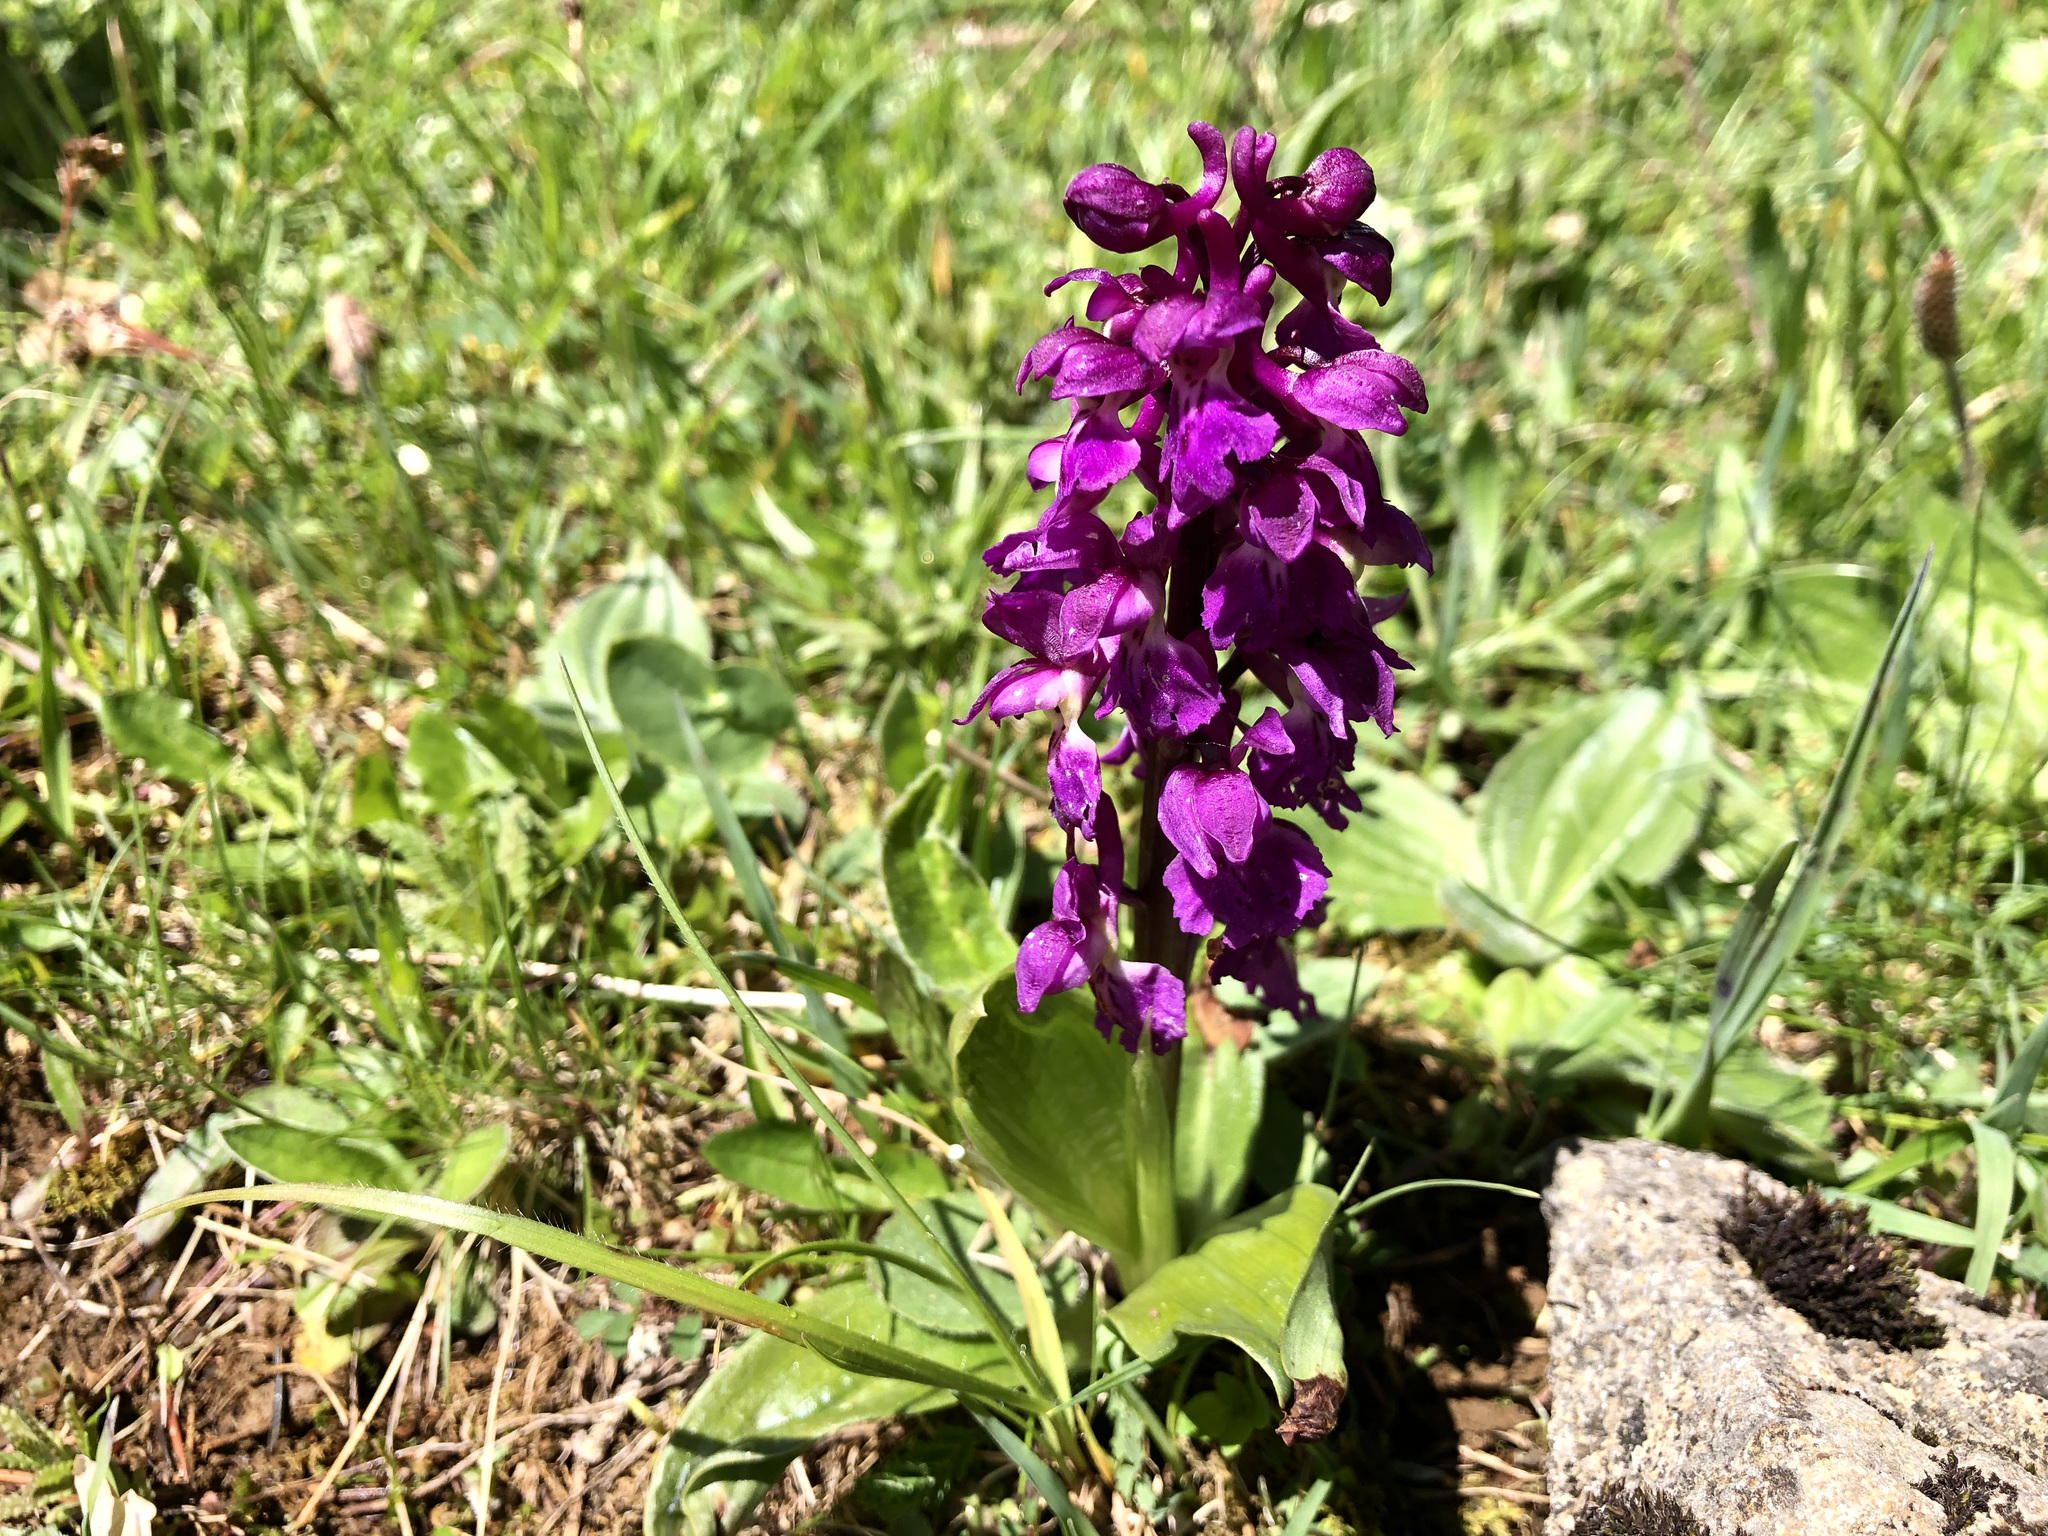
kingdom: Plantae
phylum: Tracheophyta
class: Liliopsida
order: Asparagales
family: Orchidaceae
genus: Orchis
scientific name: Orchis mascula
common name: Early-purple orchid
